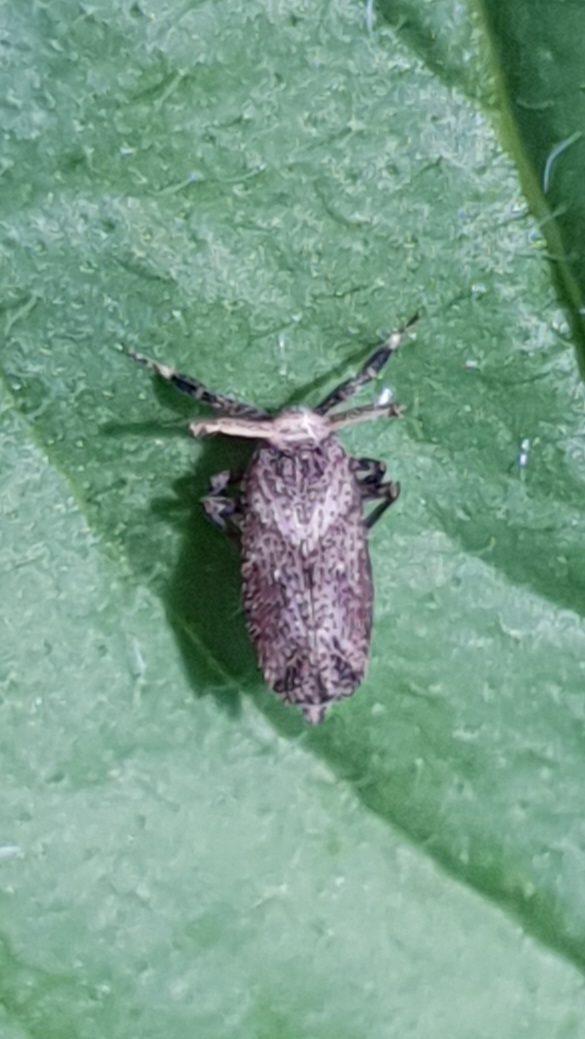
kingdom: Animalia
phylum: Arthropoda
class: Insecta
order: Hemiptera
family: Delphacidae
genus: Asiraca
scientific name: Asiraca clavicornis
